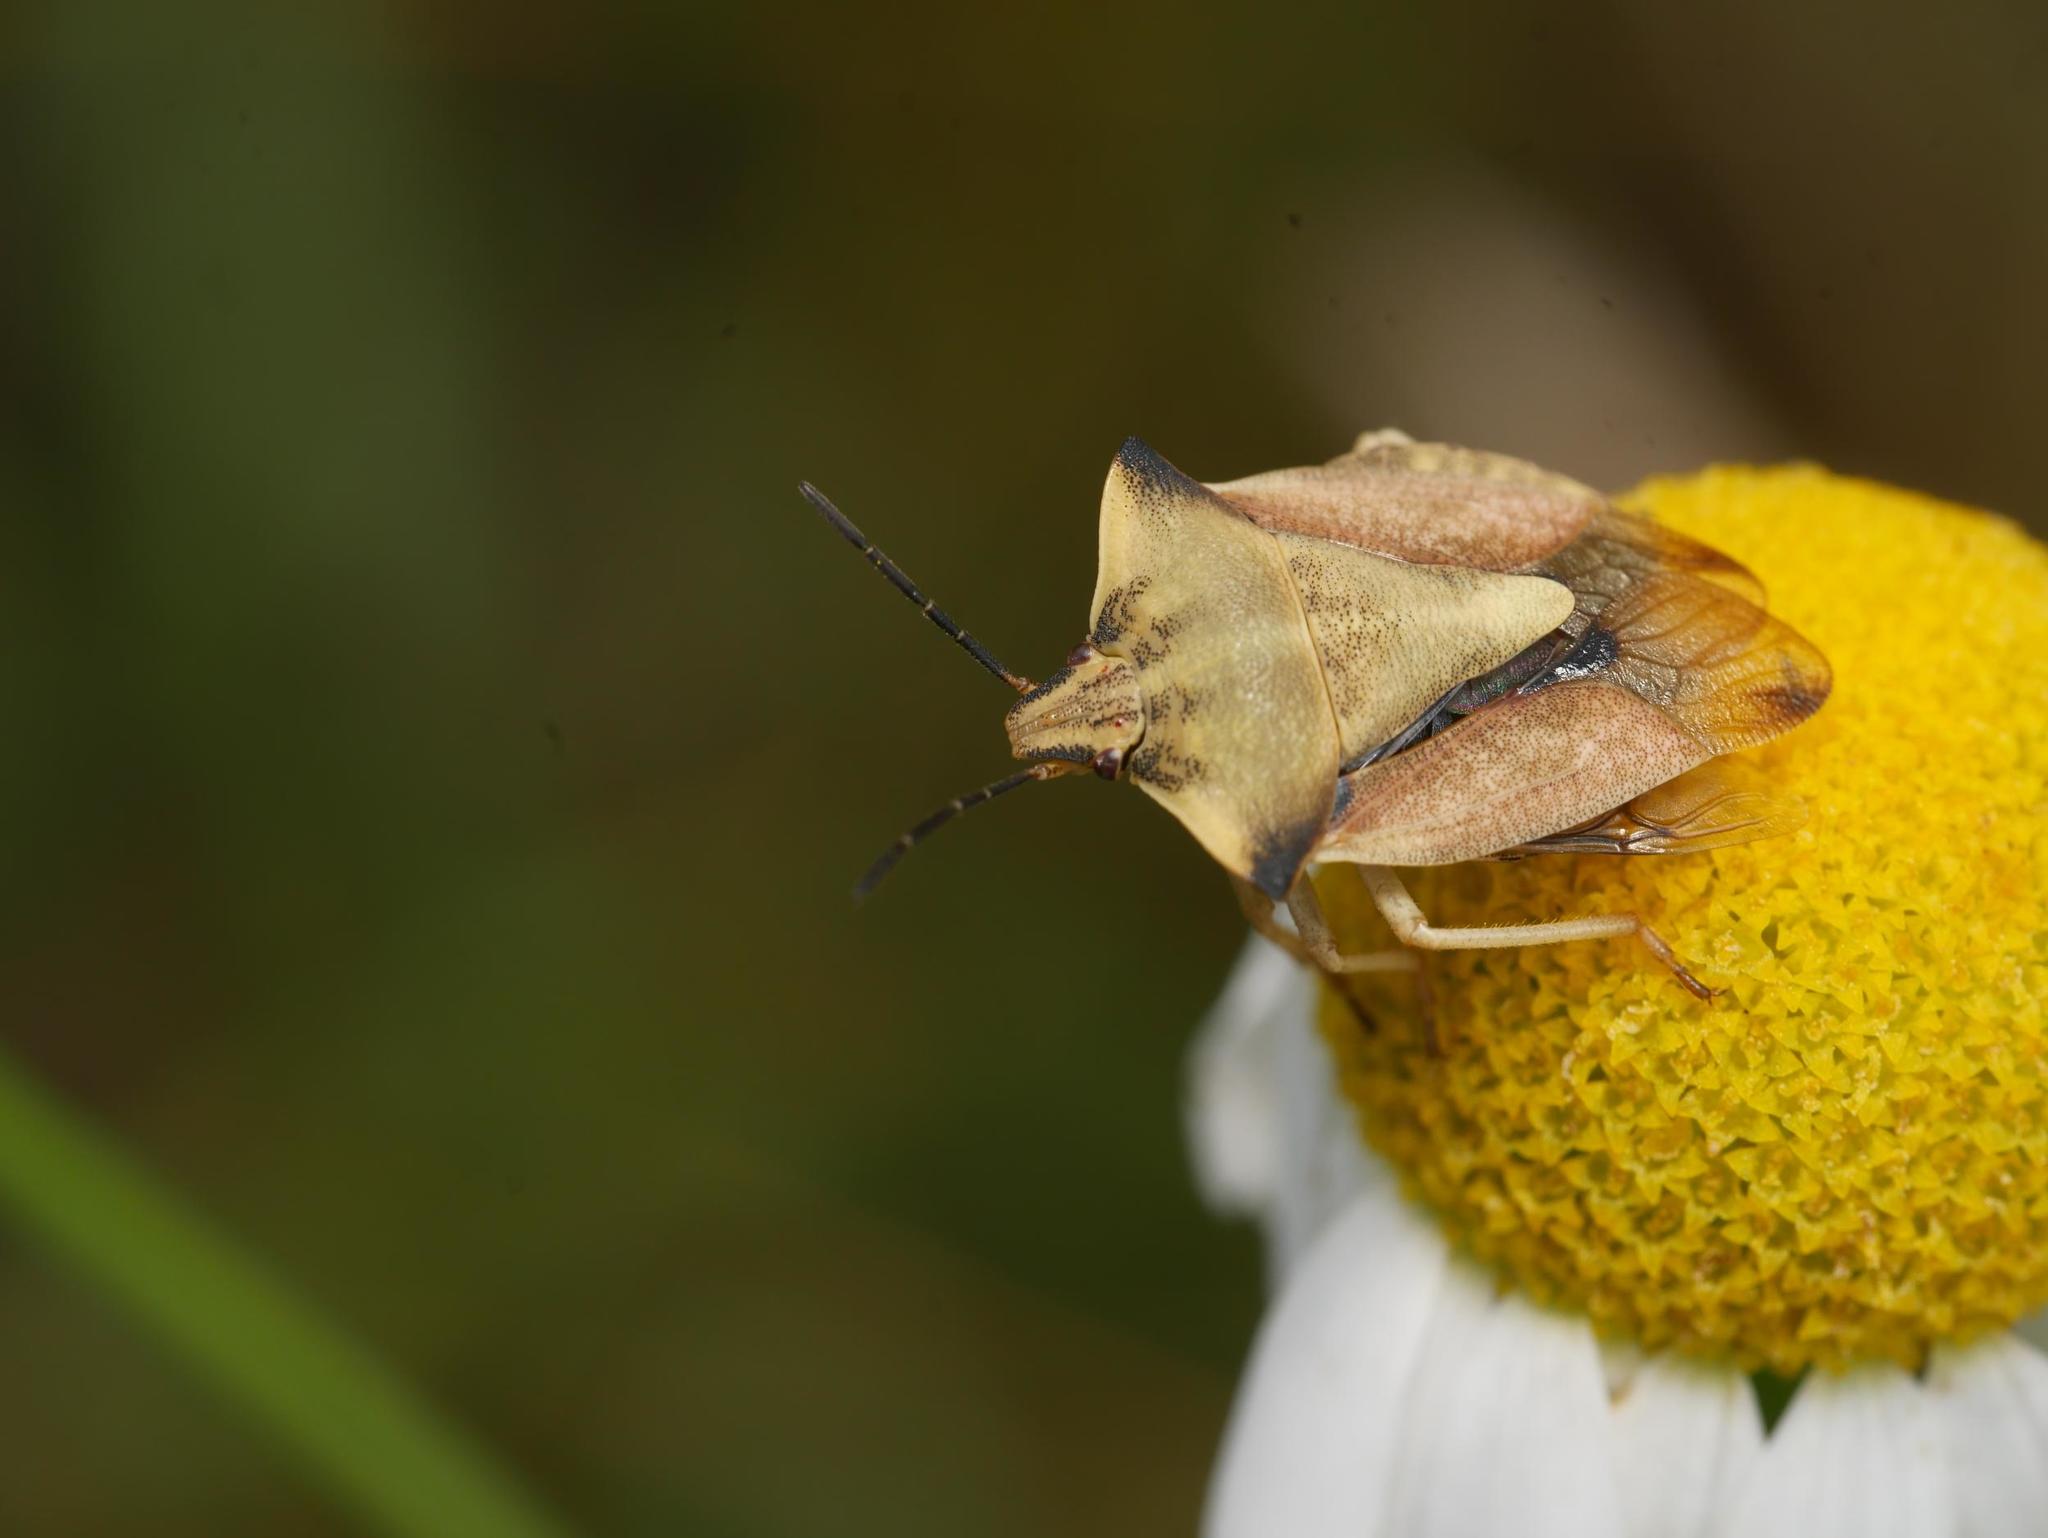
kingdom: Animalia
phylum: Arthropoda
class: Insecta
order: Hemiptera
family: Pentatomidae
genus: Carpocoris
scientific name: Carpocoris fuscispinus
